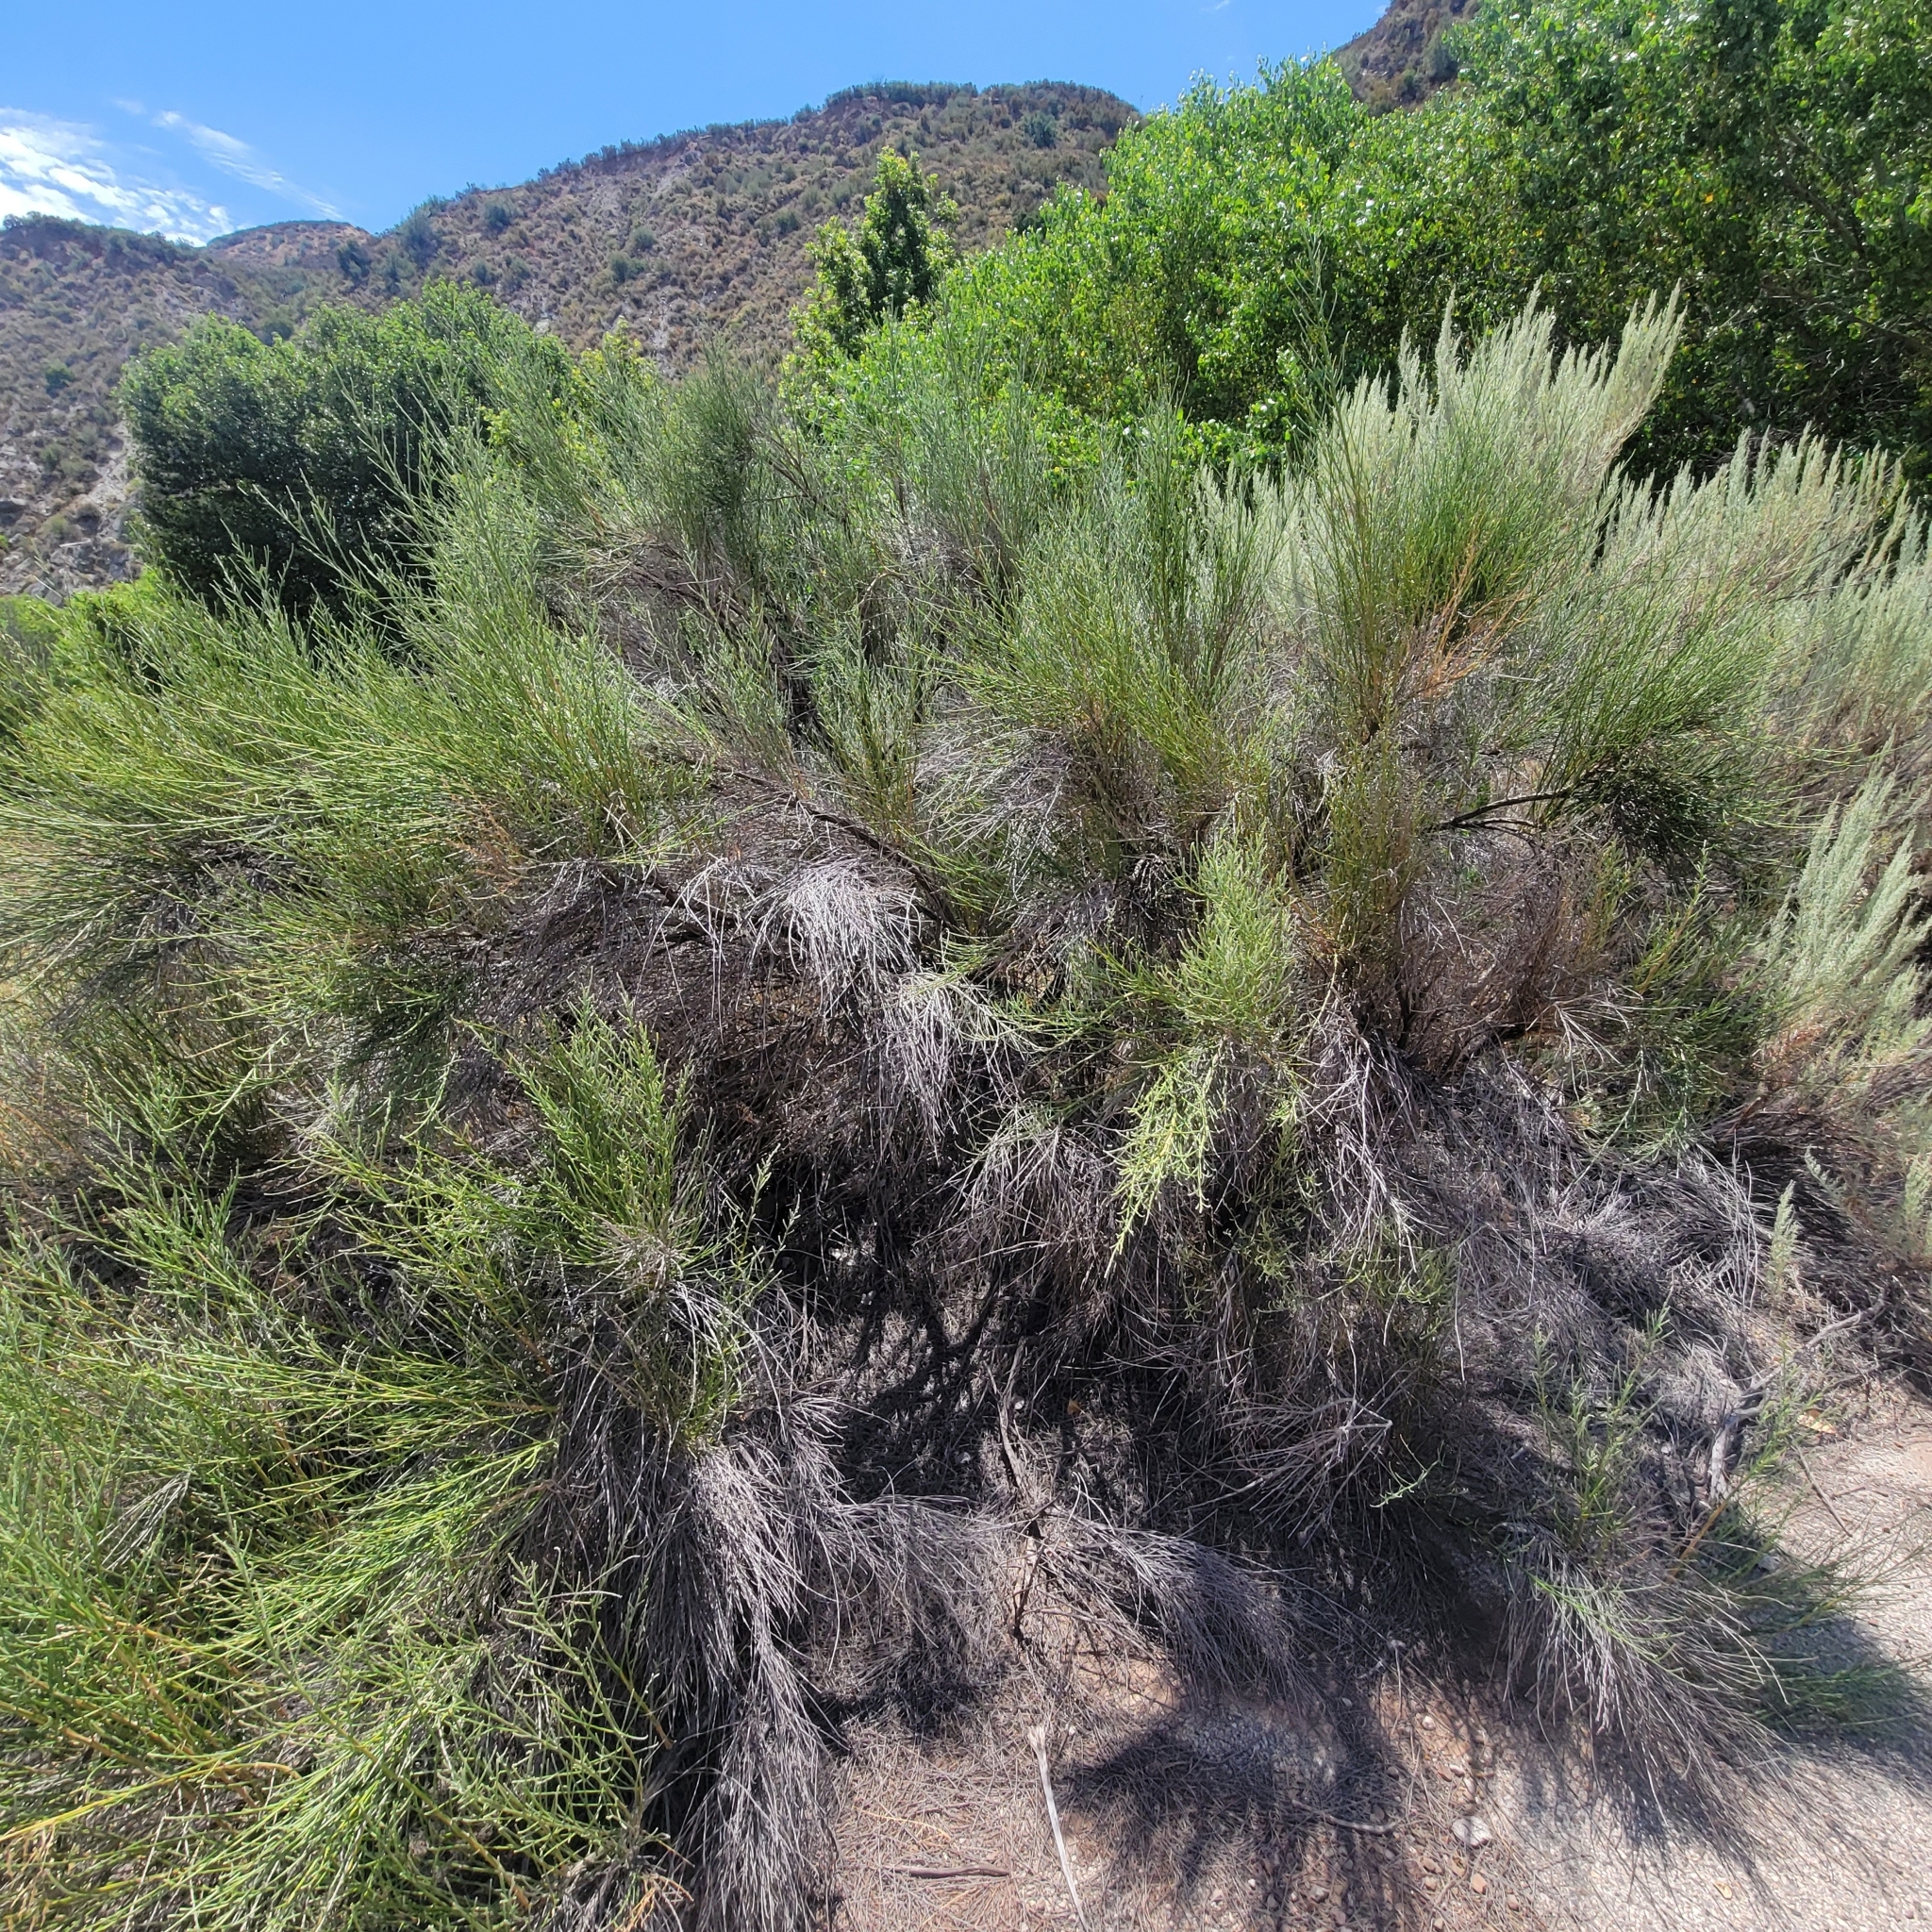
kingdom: Plantae
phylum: Tracheophyta
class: Magnoliopsida
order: Asterales
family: Asteraceae
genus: Lepidospartum
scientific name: Lepidospartum squamatum
